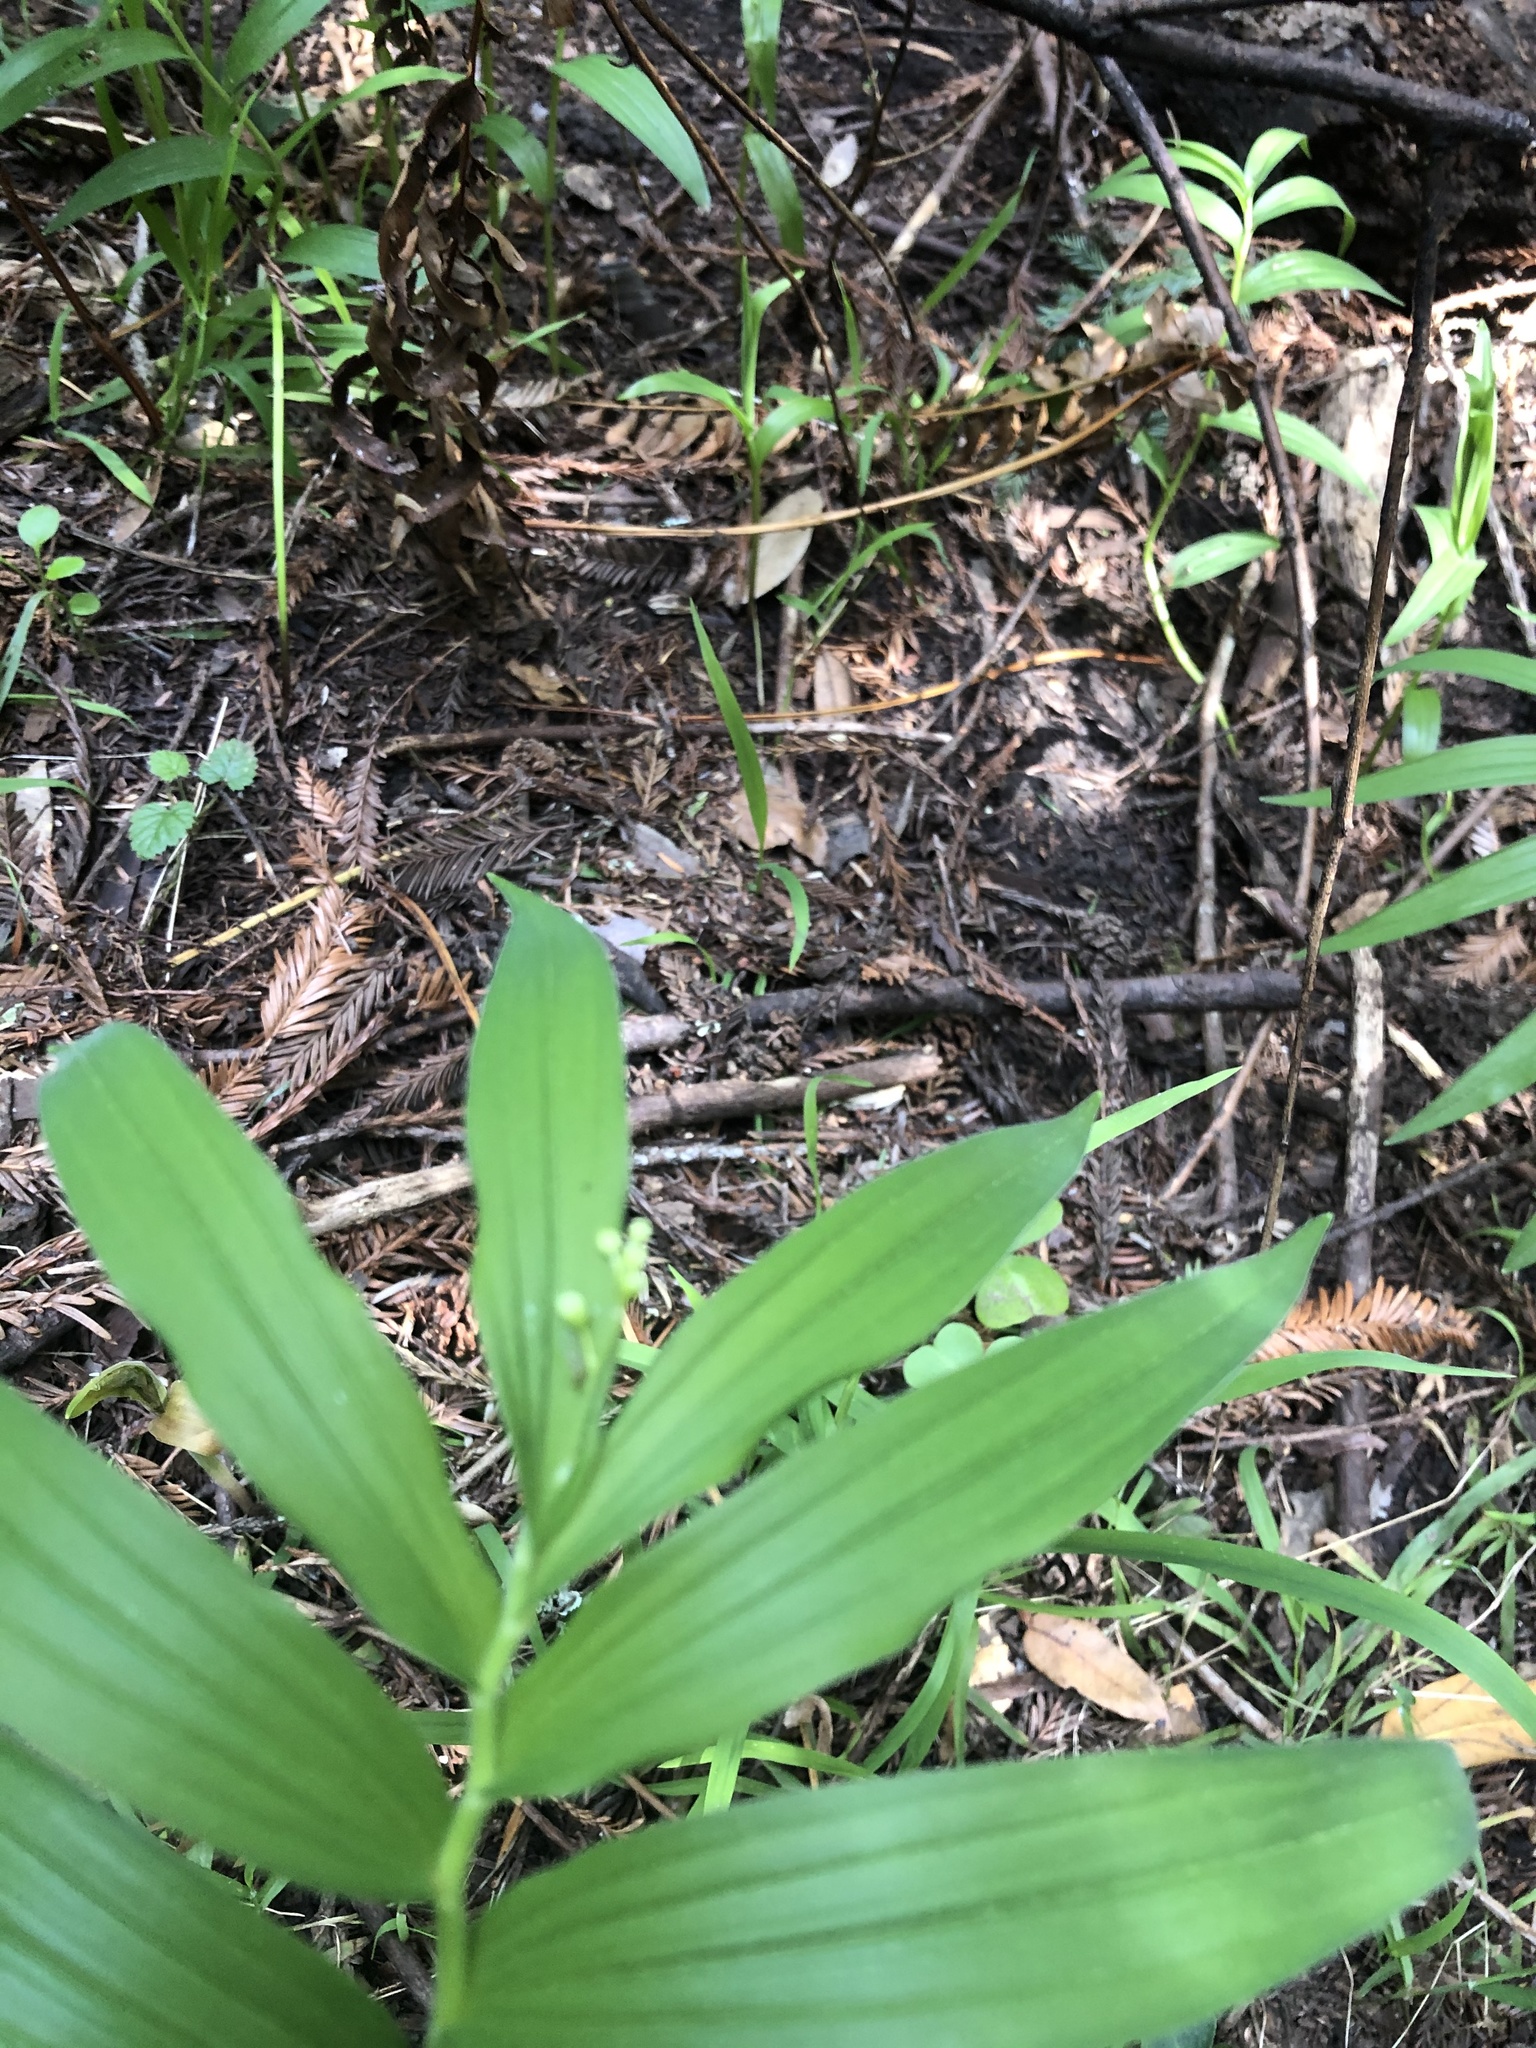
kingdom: Plantae
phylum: Tracheophyta
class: Liliopsida
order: Asparagales
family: Asparagaceae
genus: Maianthemum
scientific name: Maianthemum stellatum
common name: Little false solomon's seal
